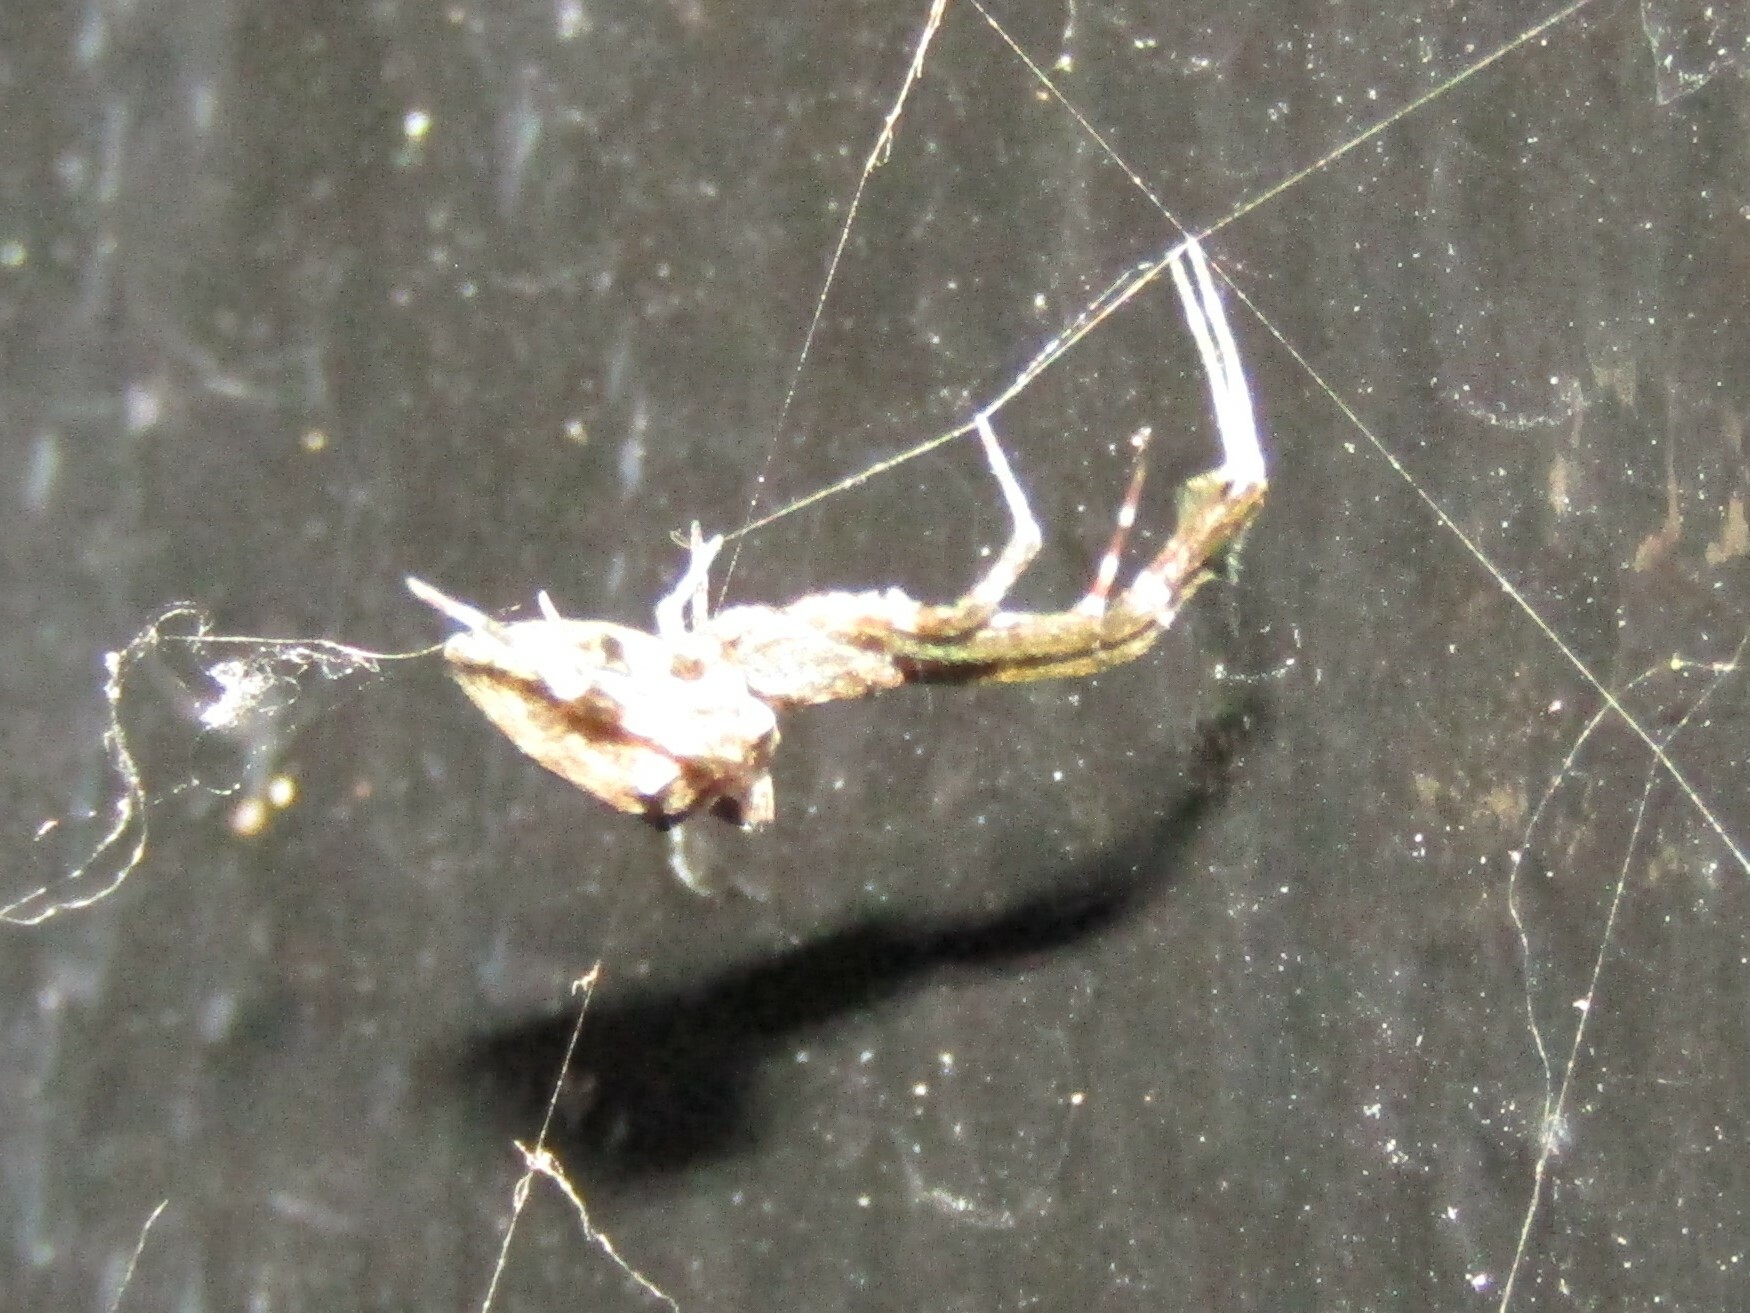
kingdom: Animalia
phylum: Arthropoda
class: Arachnida
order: Araneae
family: Uloboridae
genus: Uloborus
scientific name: Uloborus glomosus
